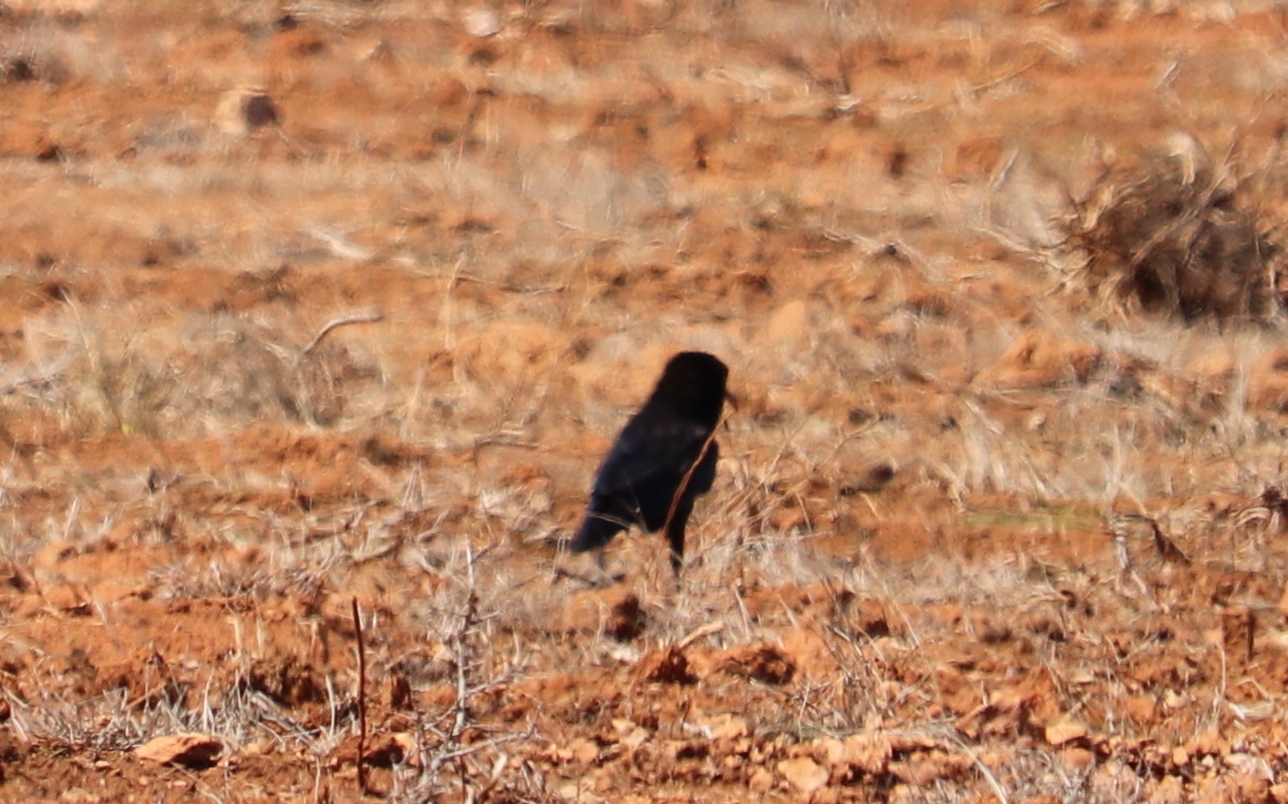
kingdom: Animalia
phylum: Chordata
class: Aves
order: Passeriformes
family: Corvidae
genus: Corvus
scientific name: Corvus capensis
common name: Cape crow
